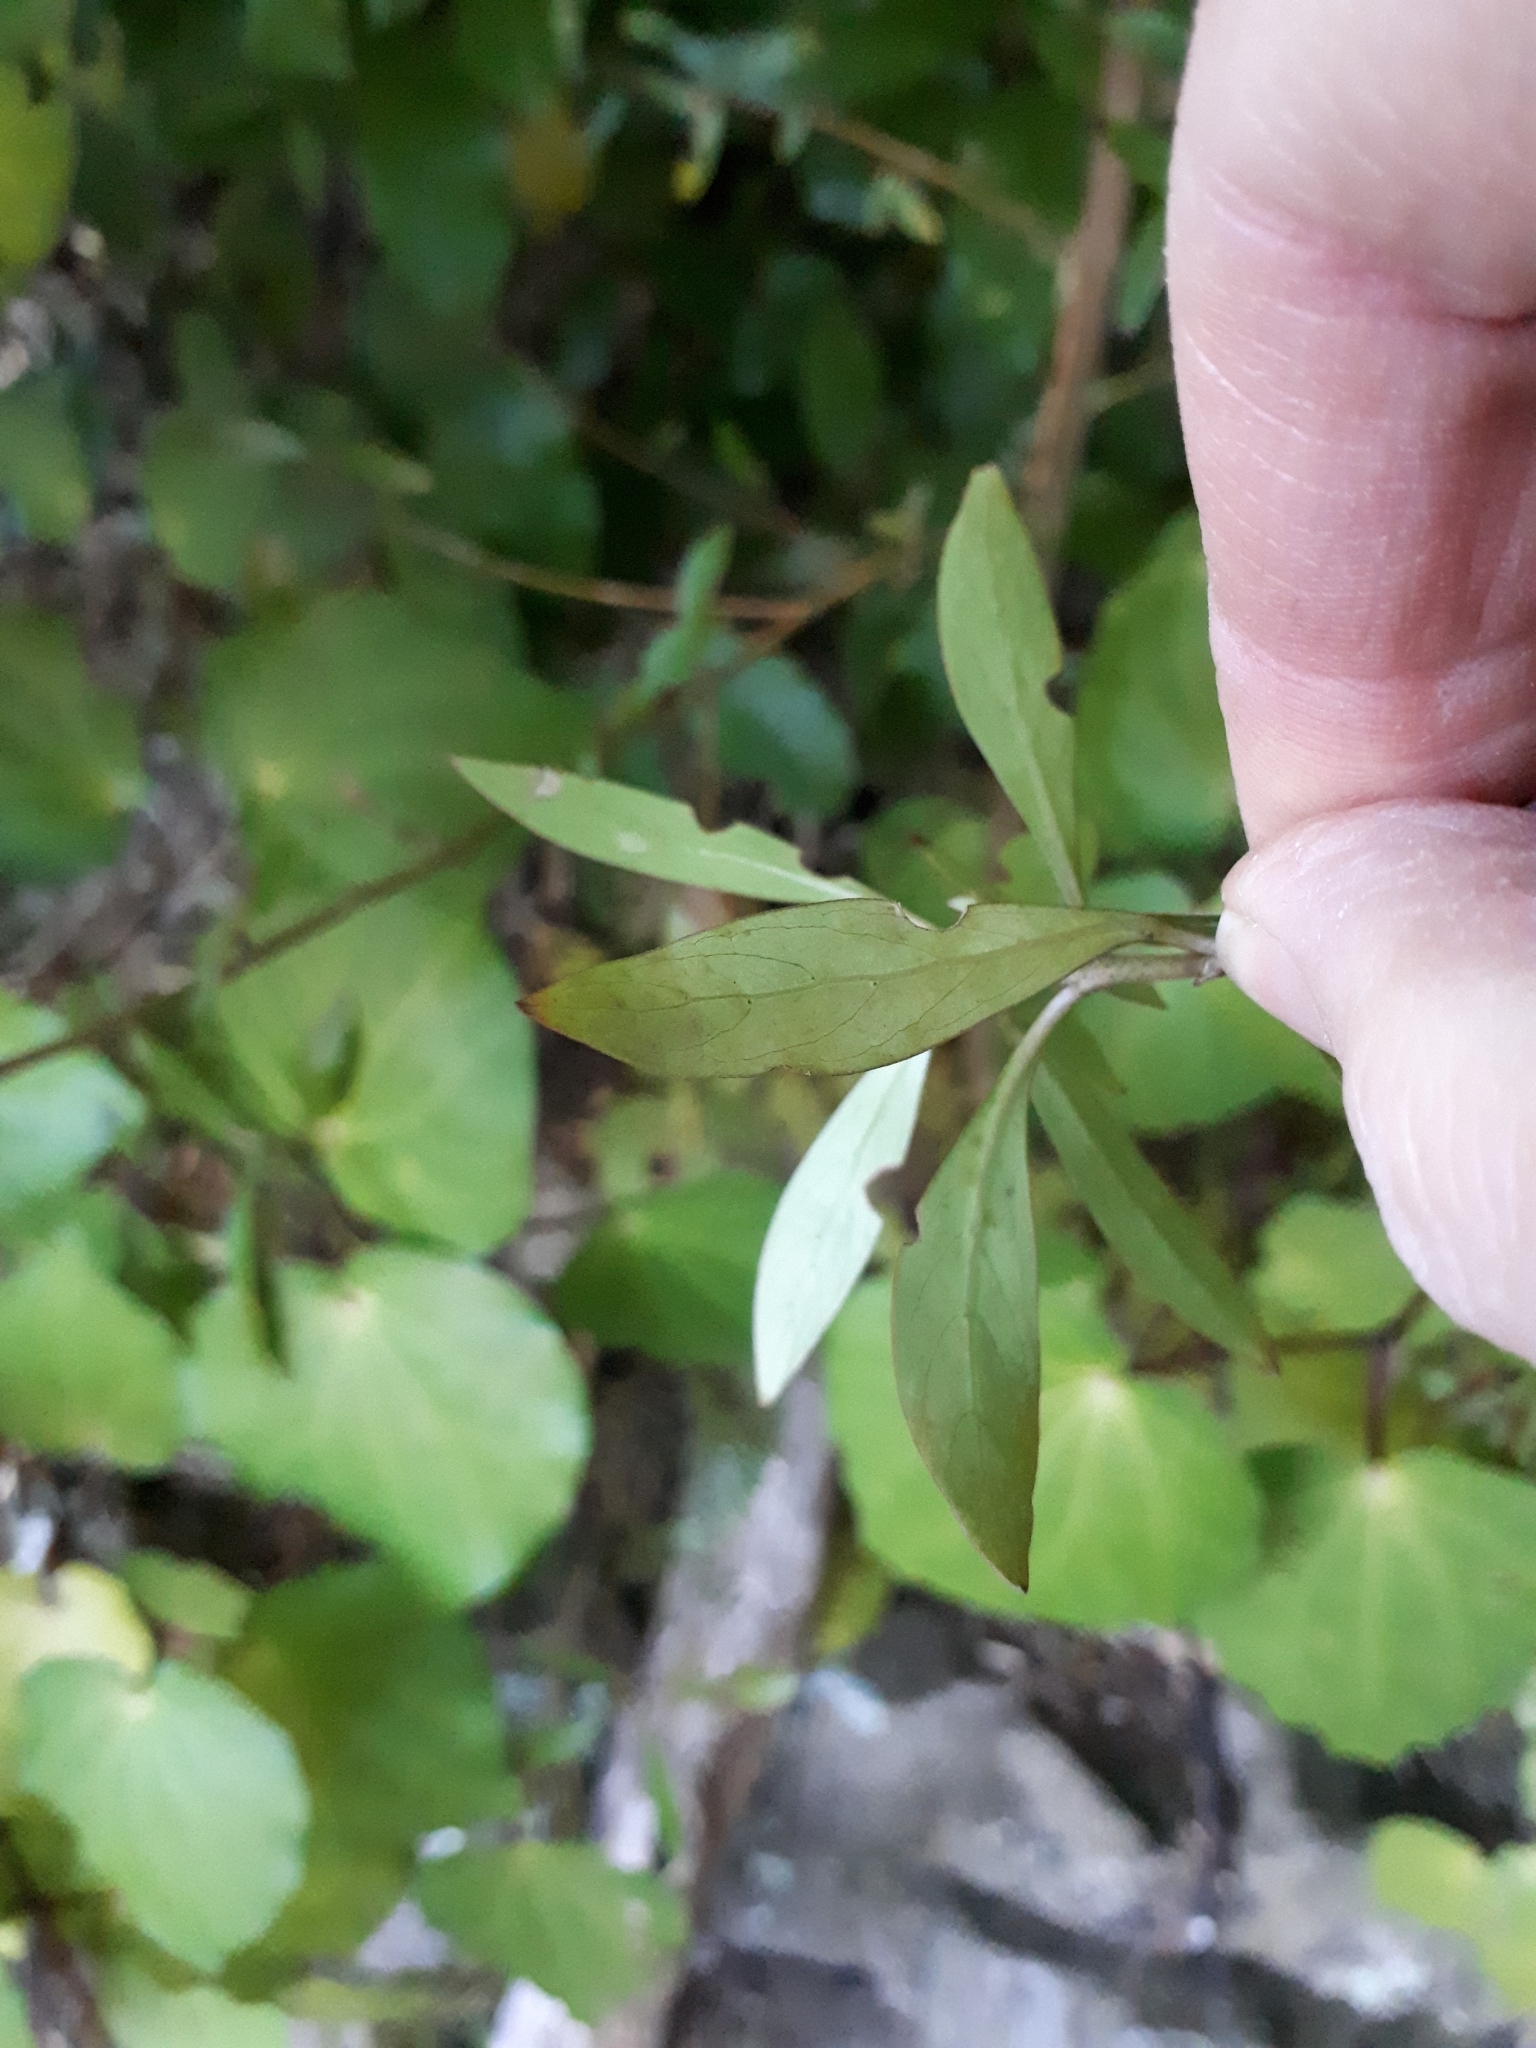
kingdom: Plantae
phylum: Tracheophyta
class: Magnoliopsida
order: Gentianales
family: Rubiaceae
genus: Coprosma
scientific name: Coprosma cunninghamii
